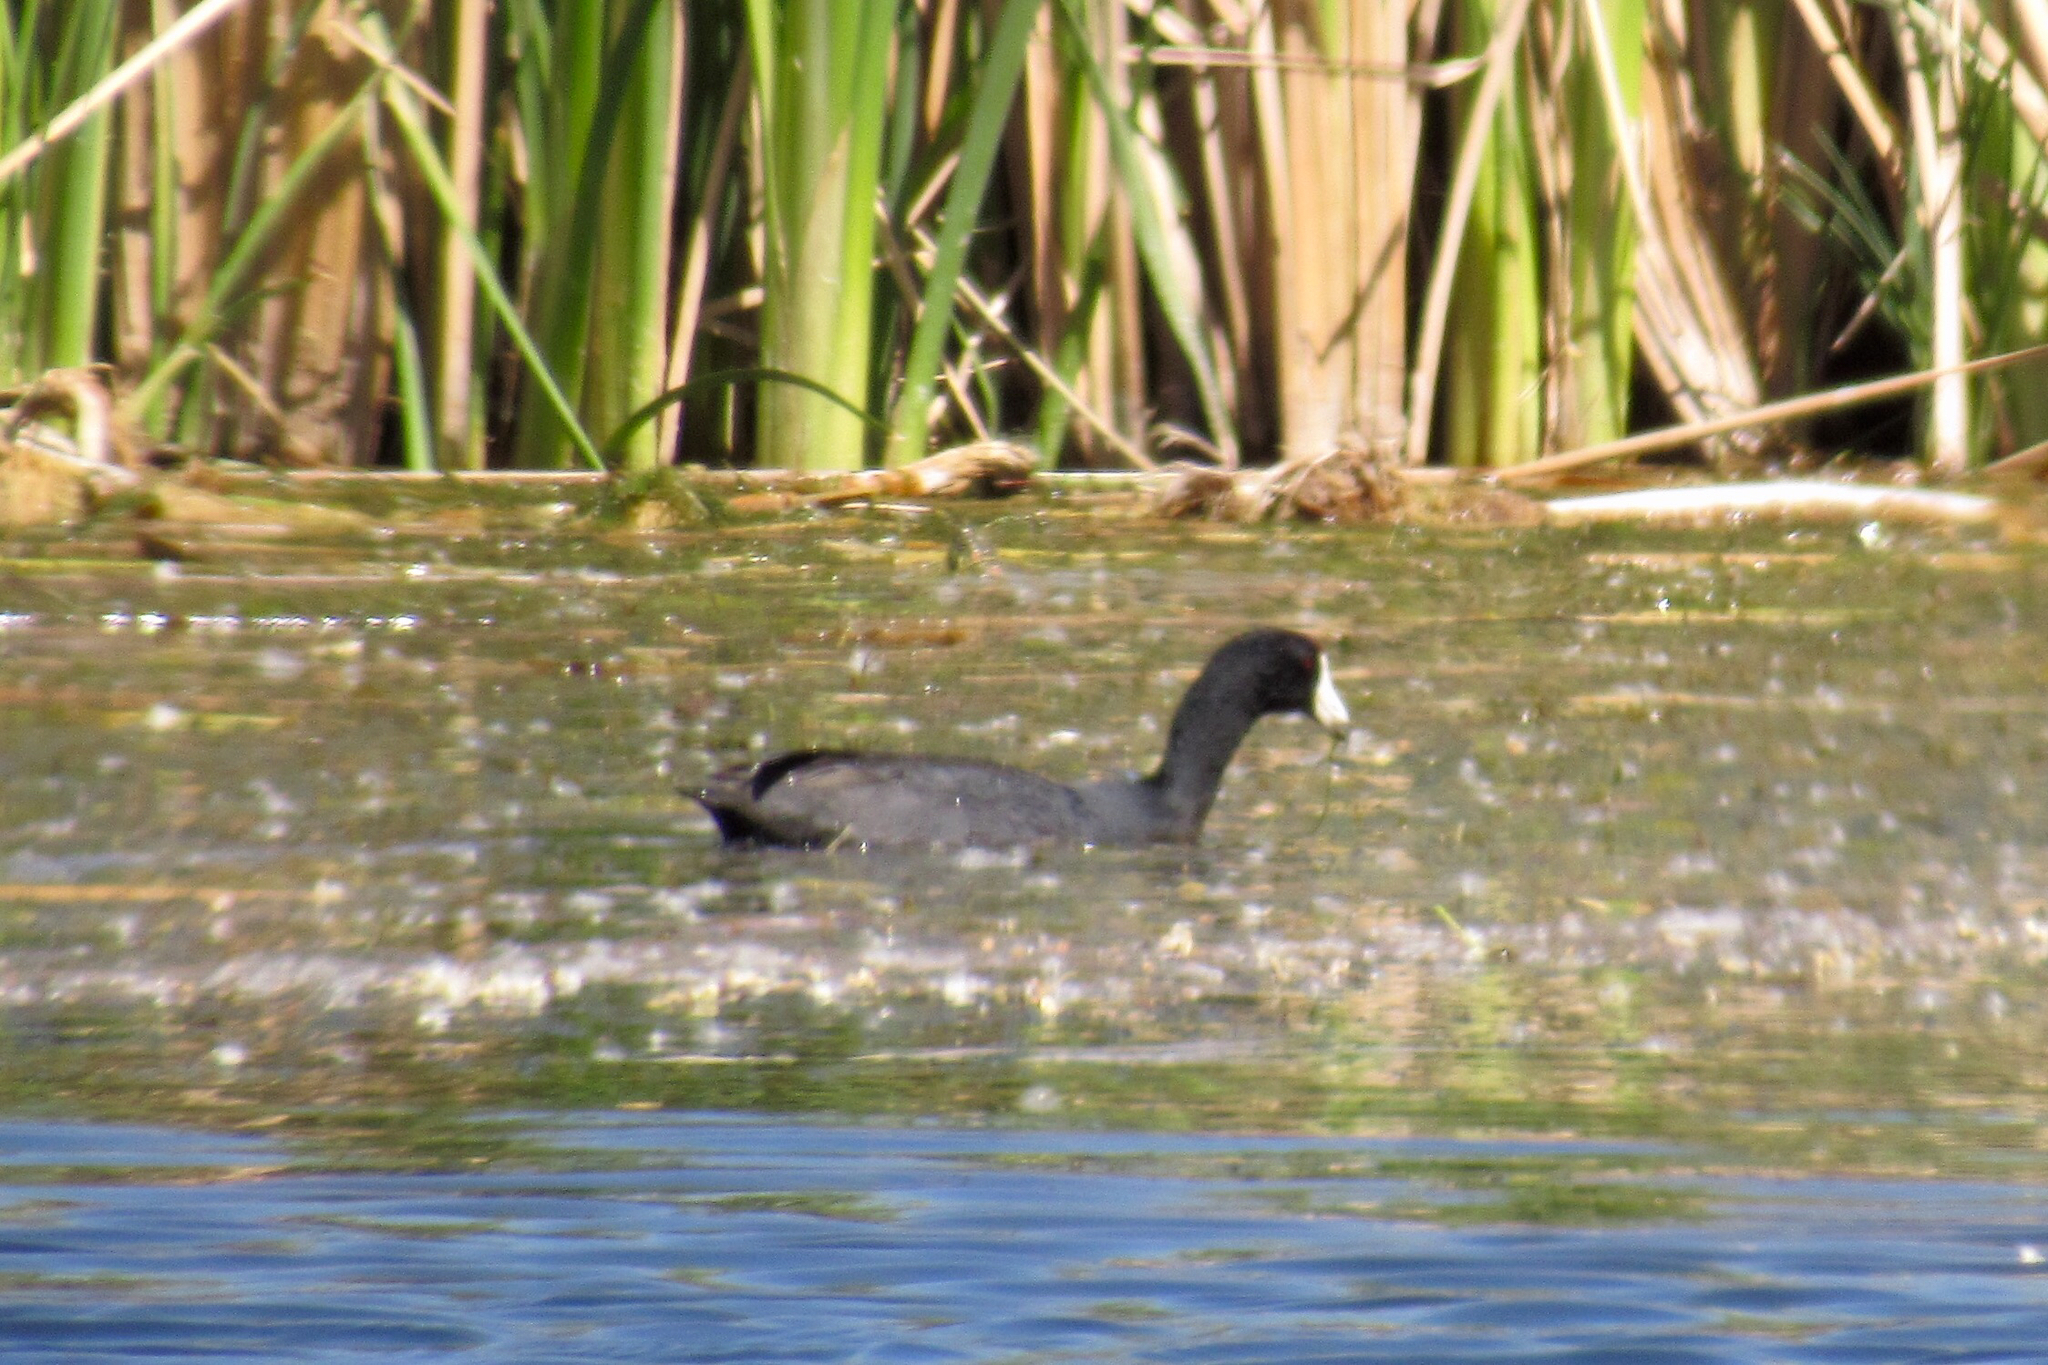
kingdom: Animalia
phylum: Chordata
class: Aves
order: Gruiformes
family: Rallidae
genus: Fulica
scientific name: Fulica americana
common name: American coot
